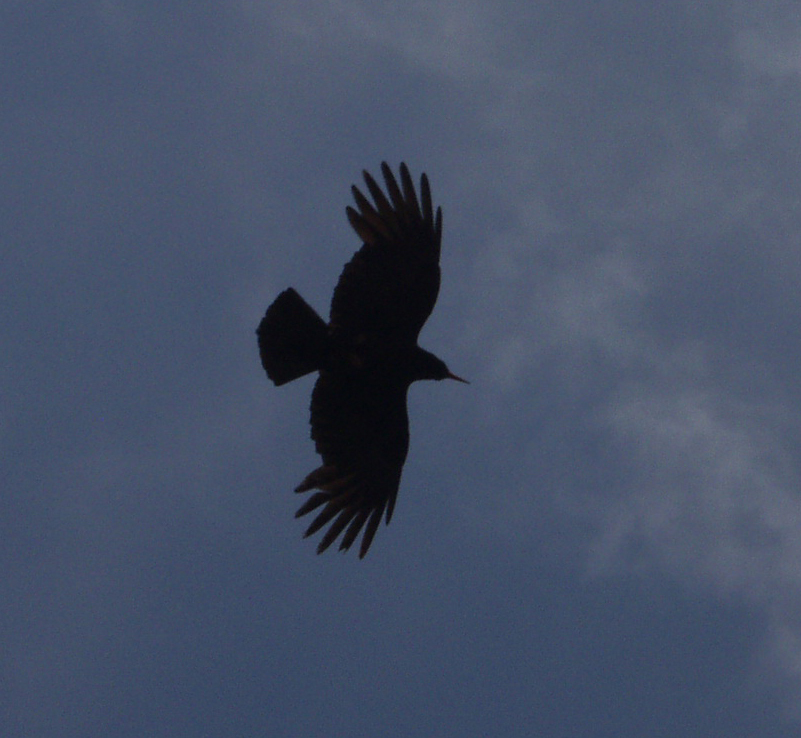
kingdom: Animalia
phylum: Chordata
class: Aves
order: Passeriformes
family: Corvidae
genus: Pyrrhocorax
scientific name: Pyrrhocorax pyrrhocorax
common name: Red-billed chough
